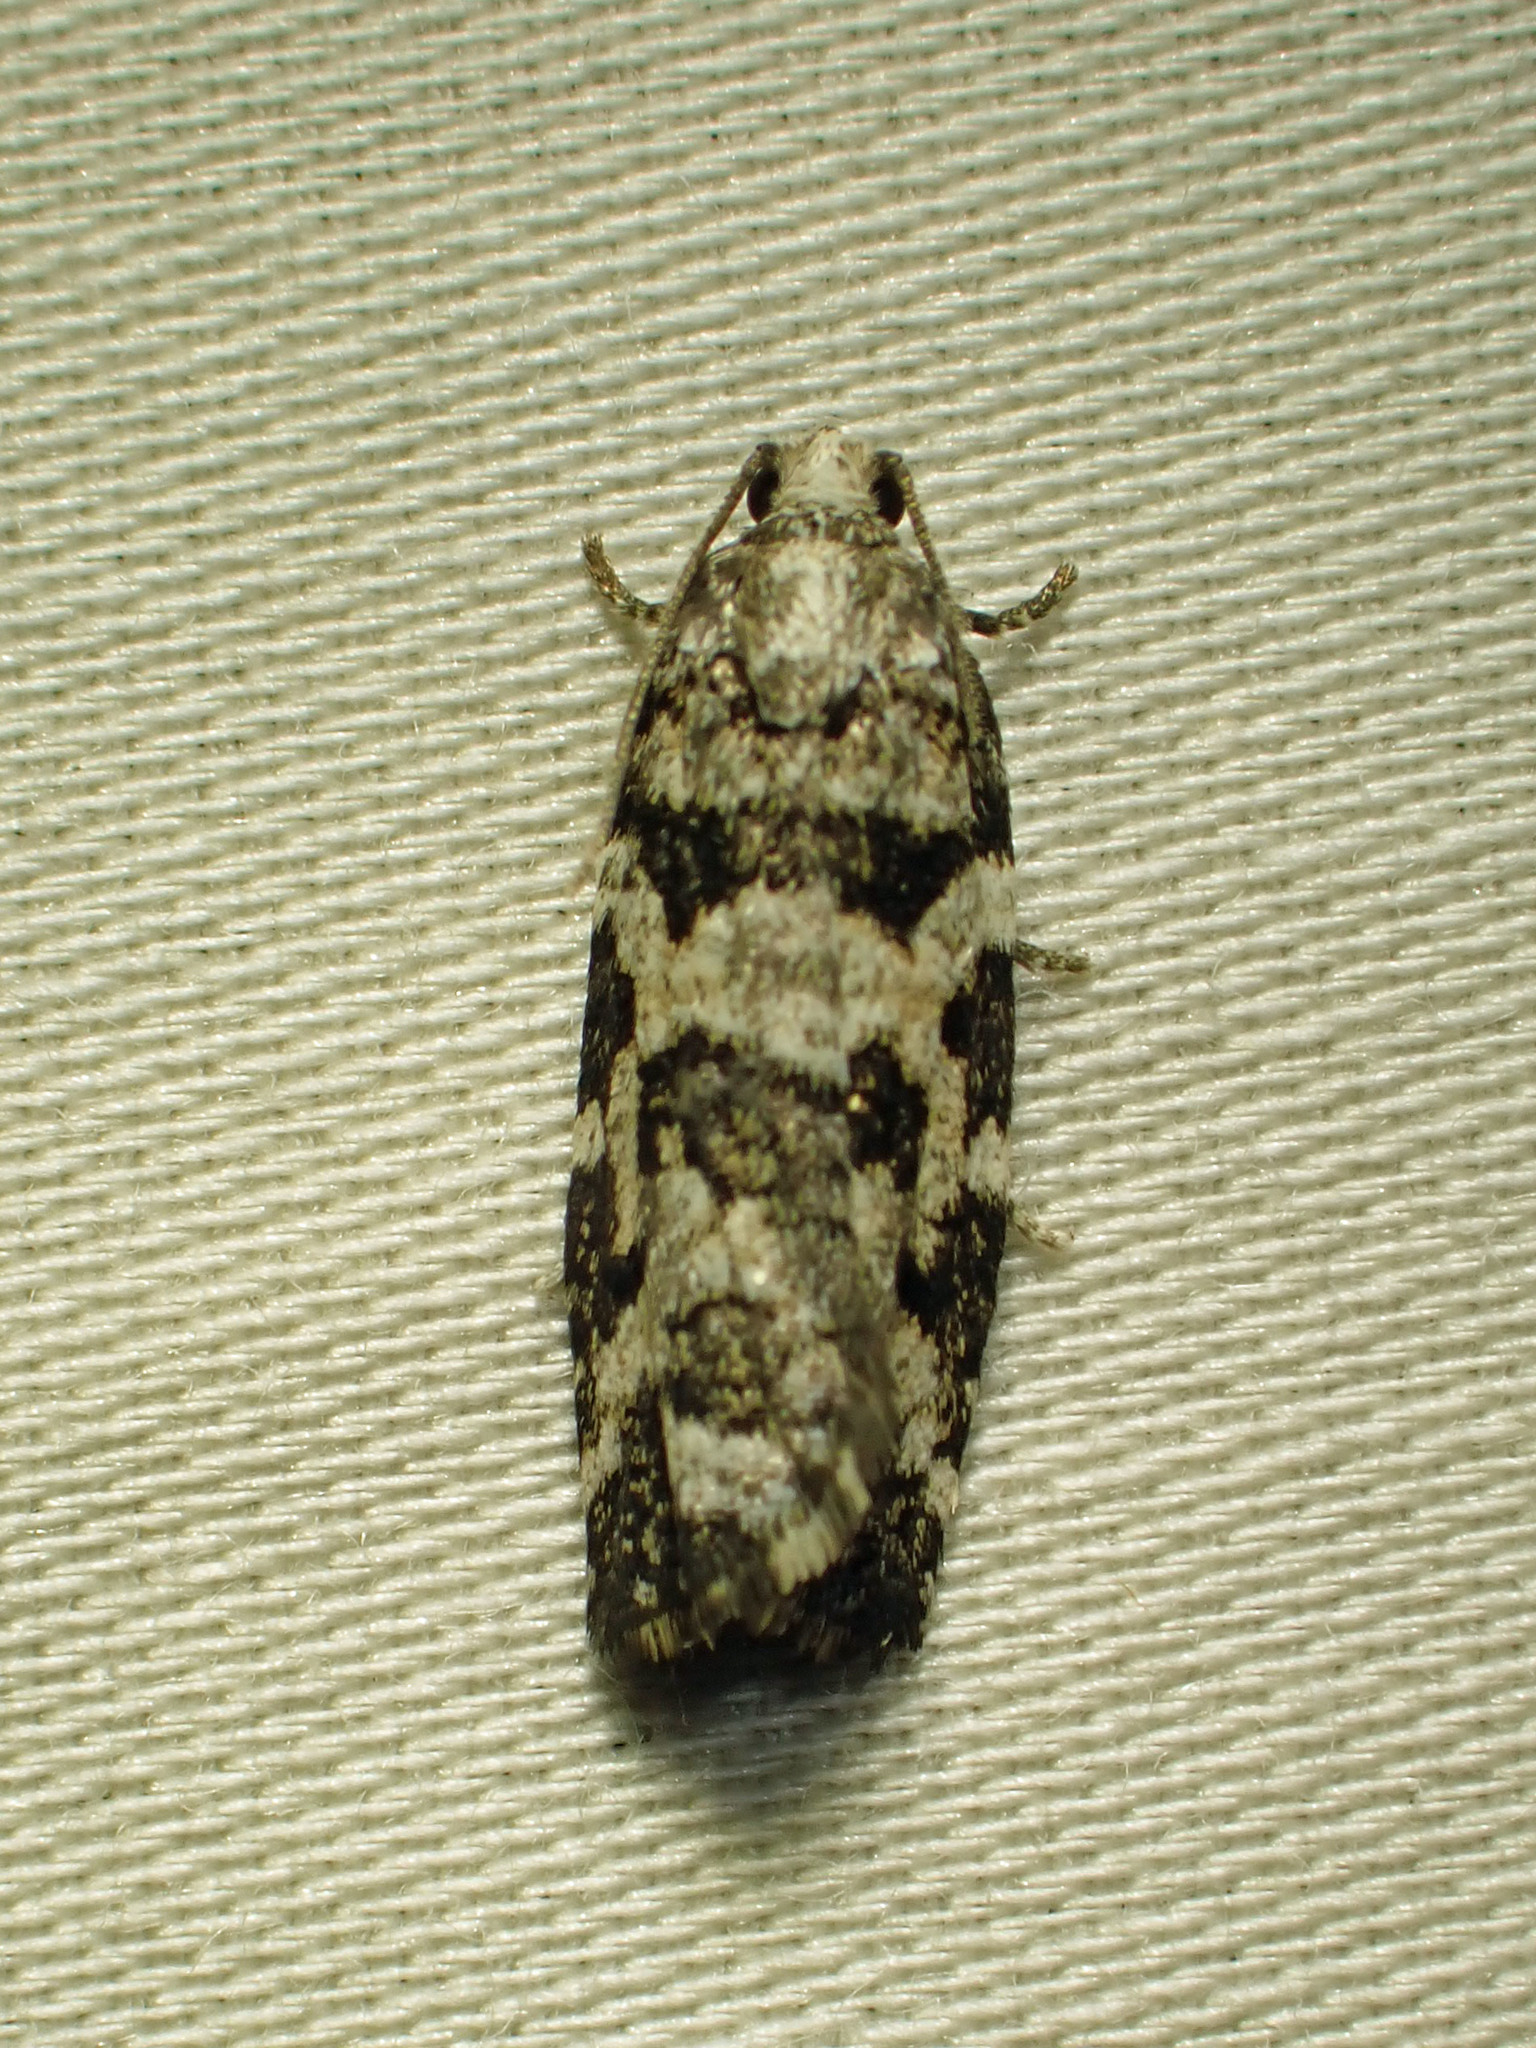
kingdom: Animalia
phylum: Arthropoda
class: Insecta
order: Lepidoptera
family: Tortricidae
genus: Archips
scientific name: Archips packardiana
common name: Spring spruce needle moth
